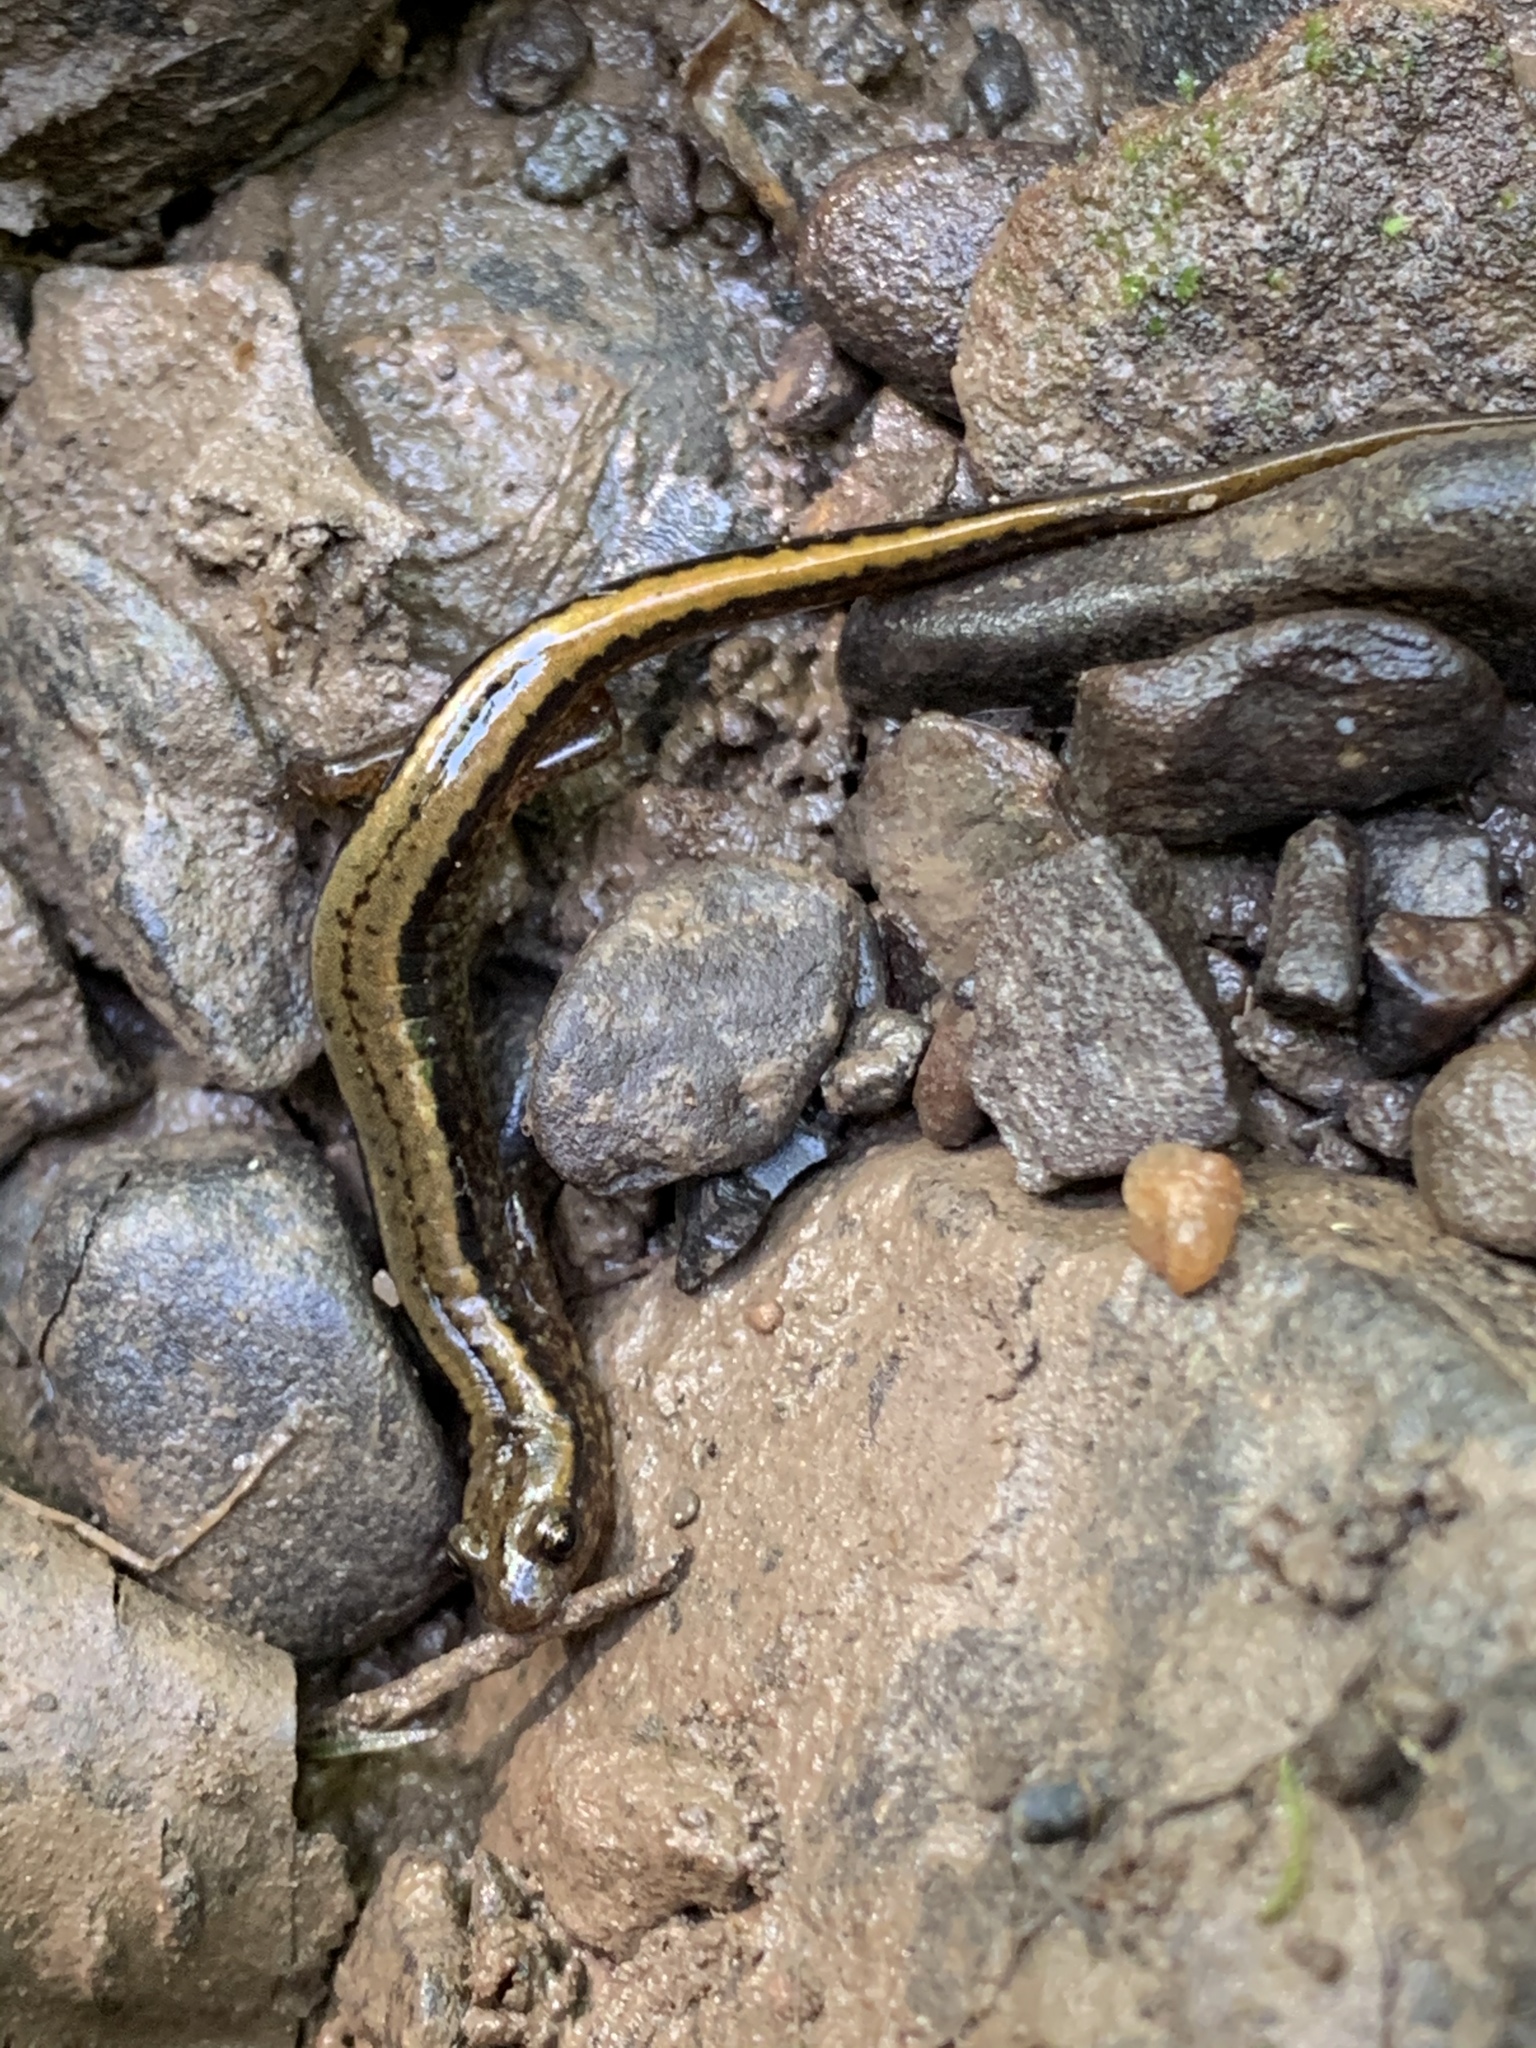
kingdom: Animalia
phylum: Chordata
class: Amphibia
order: Caudata
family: Plethodontidae
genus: Eurycea
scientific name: Eurycea bislineata
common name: Northern two-lined salamander
